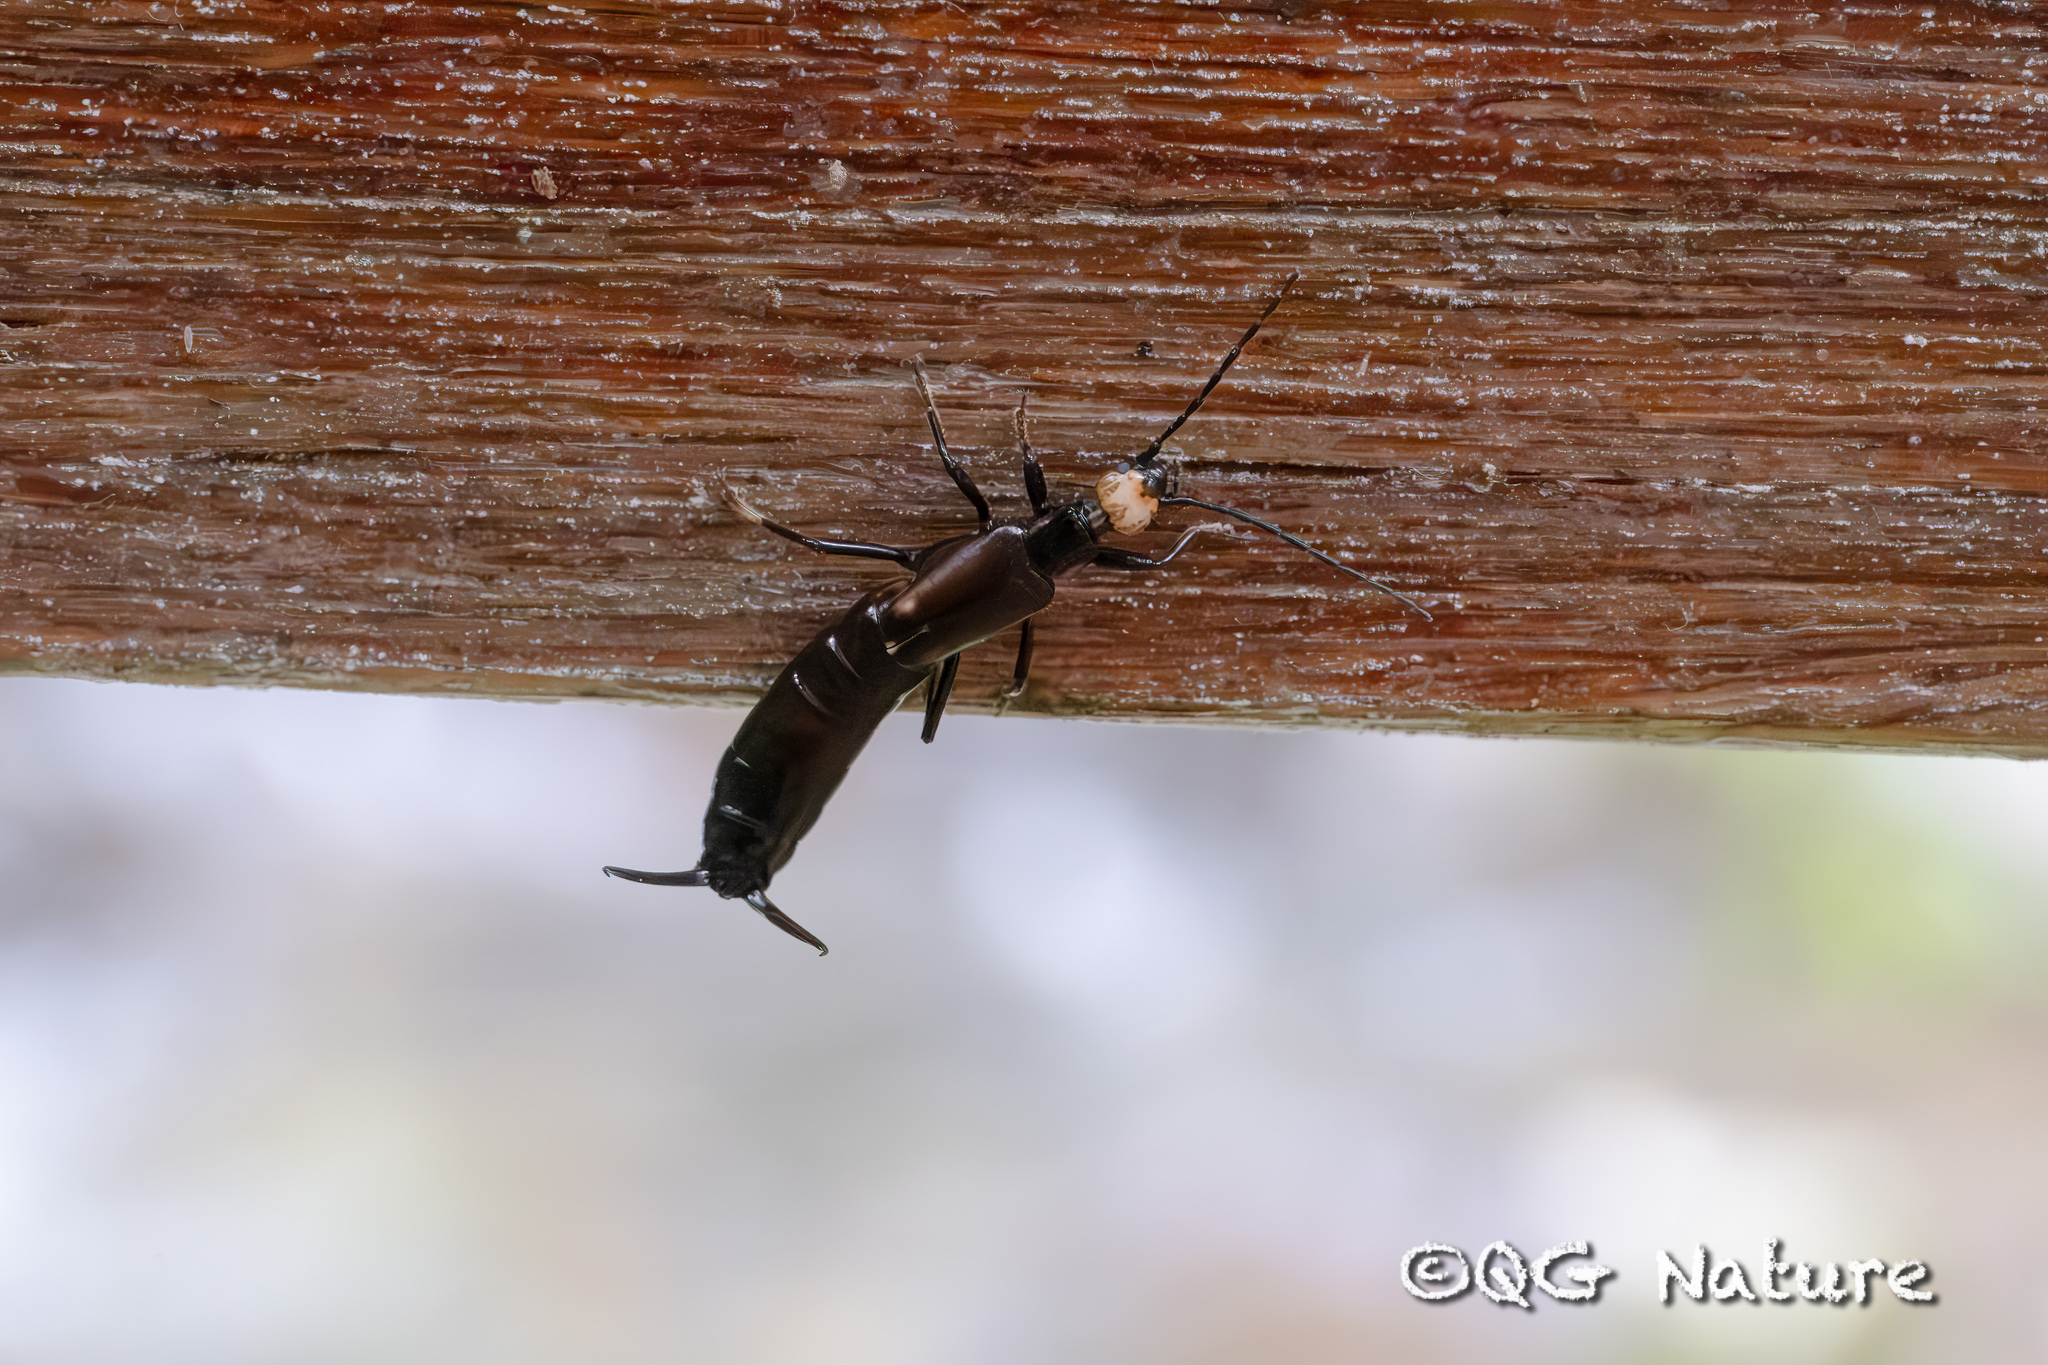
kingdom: Animalia
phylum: Arthropoda
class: Insecta
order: Dermaptera
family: Forficulidae
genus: Paratimomenus
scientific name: Paratimomenus flavocapitata
